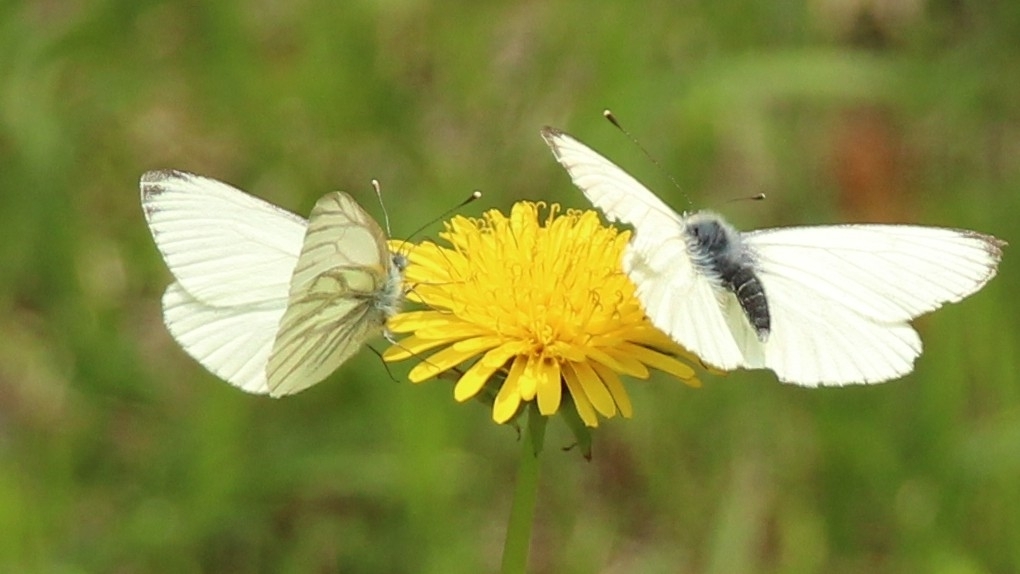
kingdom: Animalia
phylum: Arthropoda
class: Insecta
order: Lepidoptera
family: Pieridae
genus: Pieris
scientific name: Pieris napi
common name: Green-veined white
